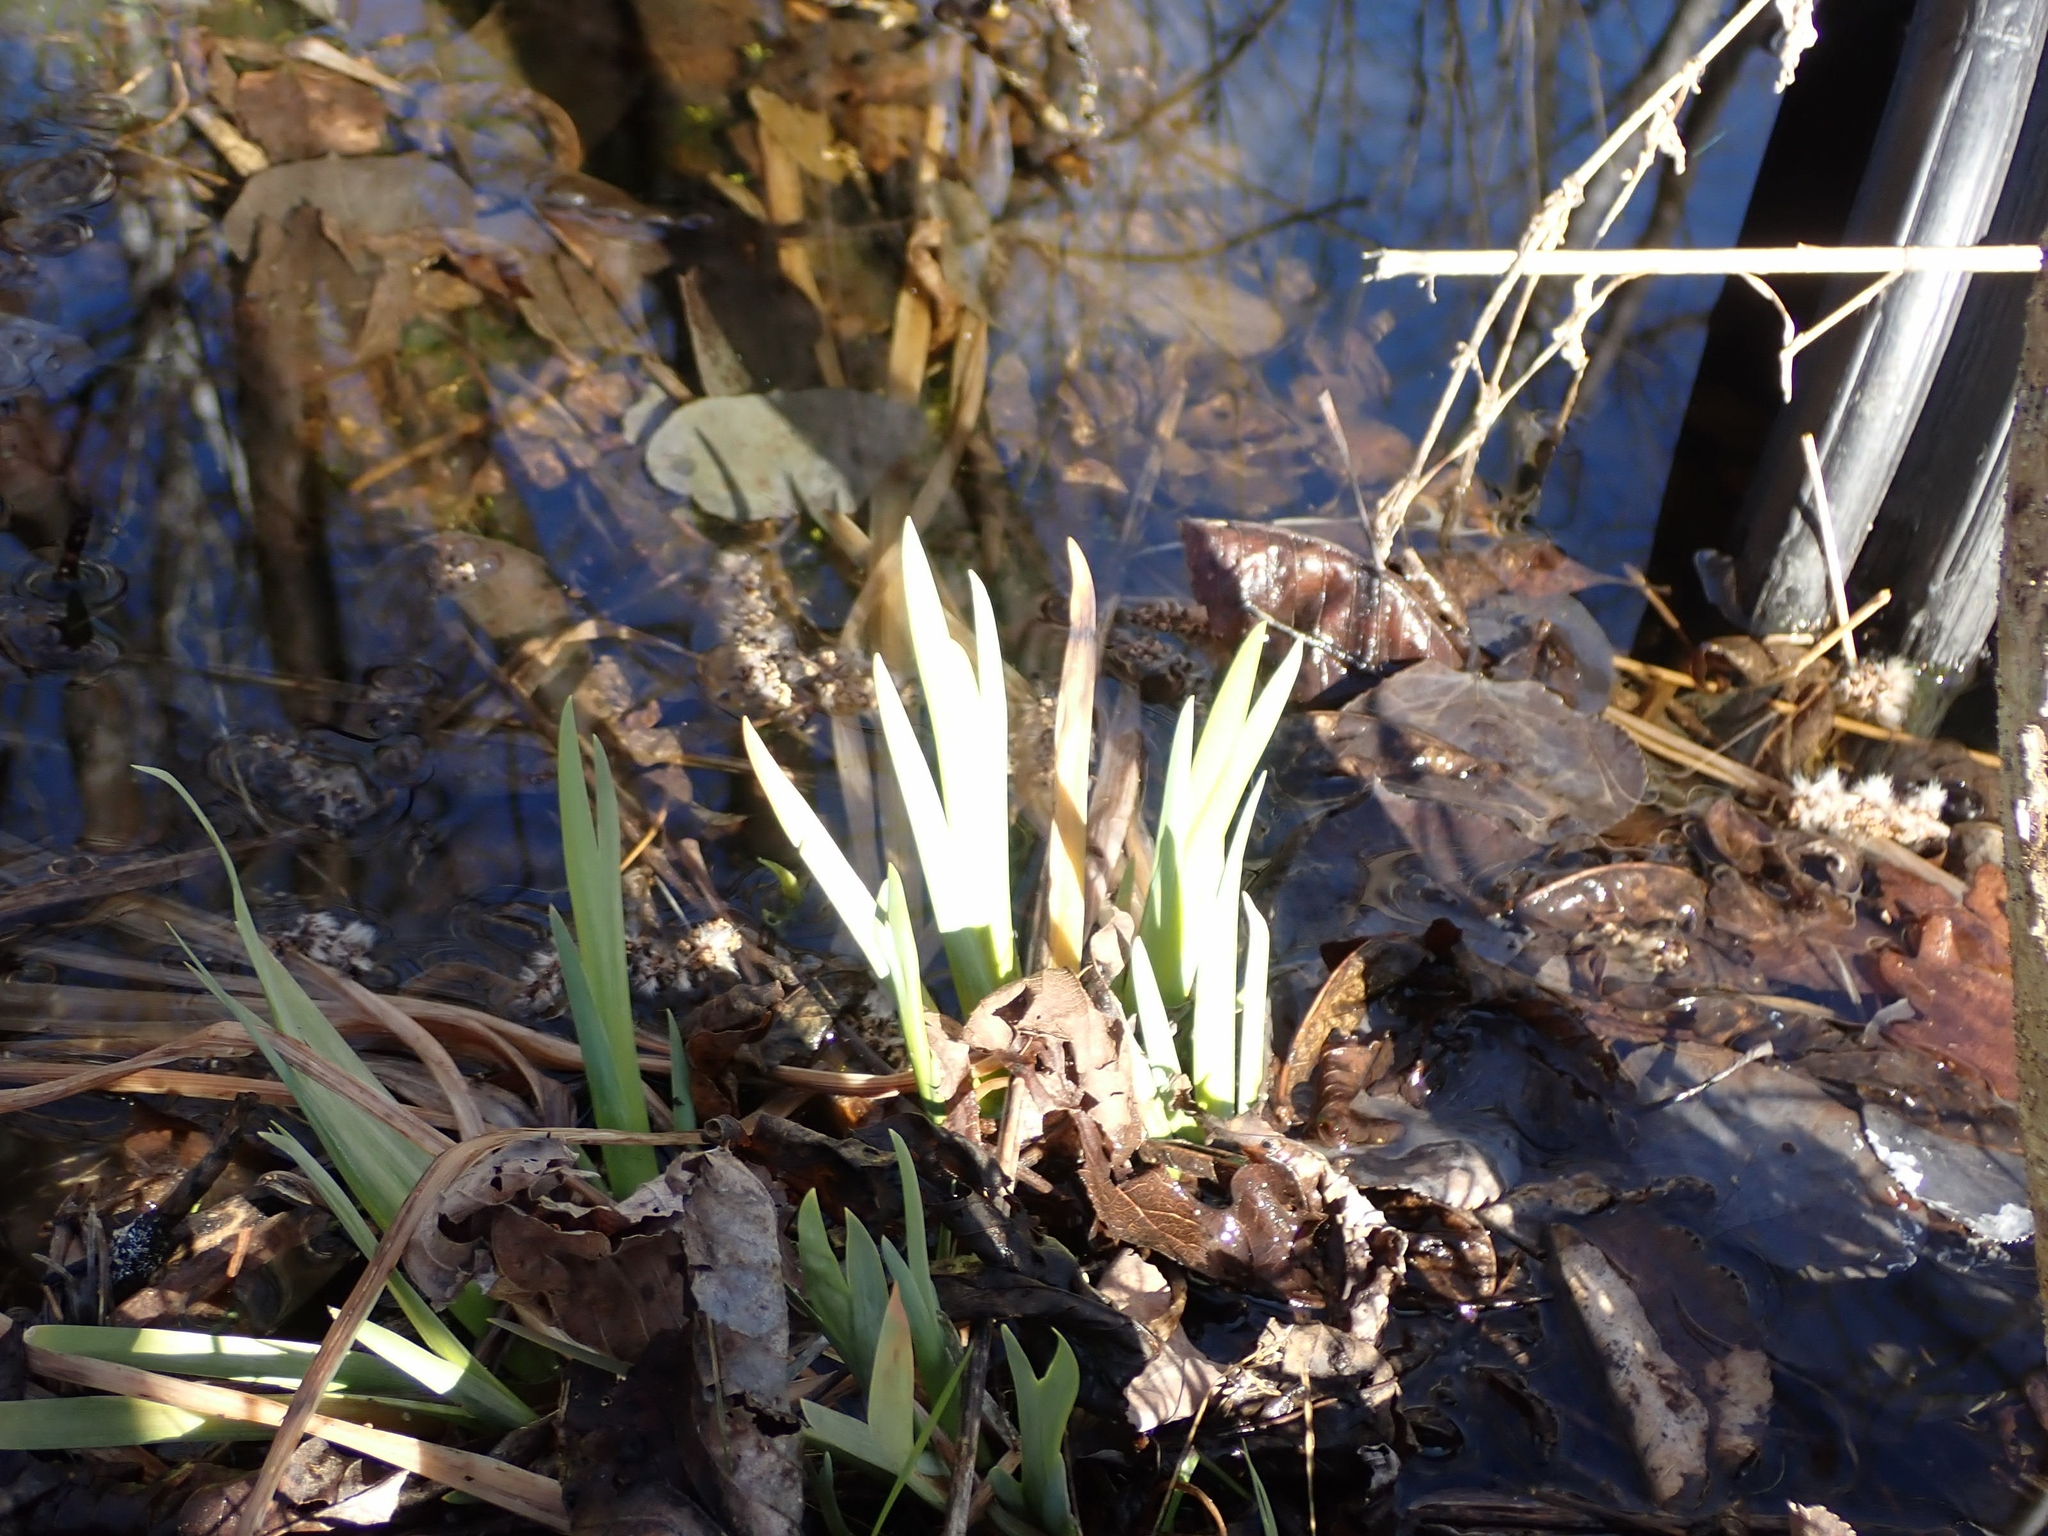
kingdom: Plantae
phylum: Tracheophyta
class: Liliopsida
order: Asparagales
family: Iridaceae
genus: Iris
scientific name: Iris versicolor
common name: Purple iris
